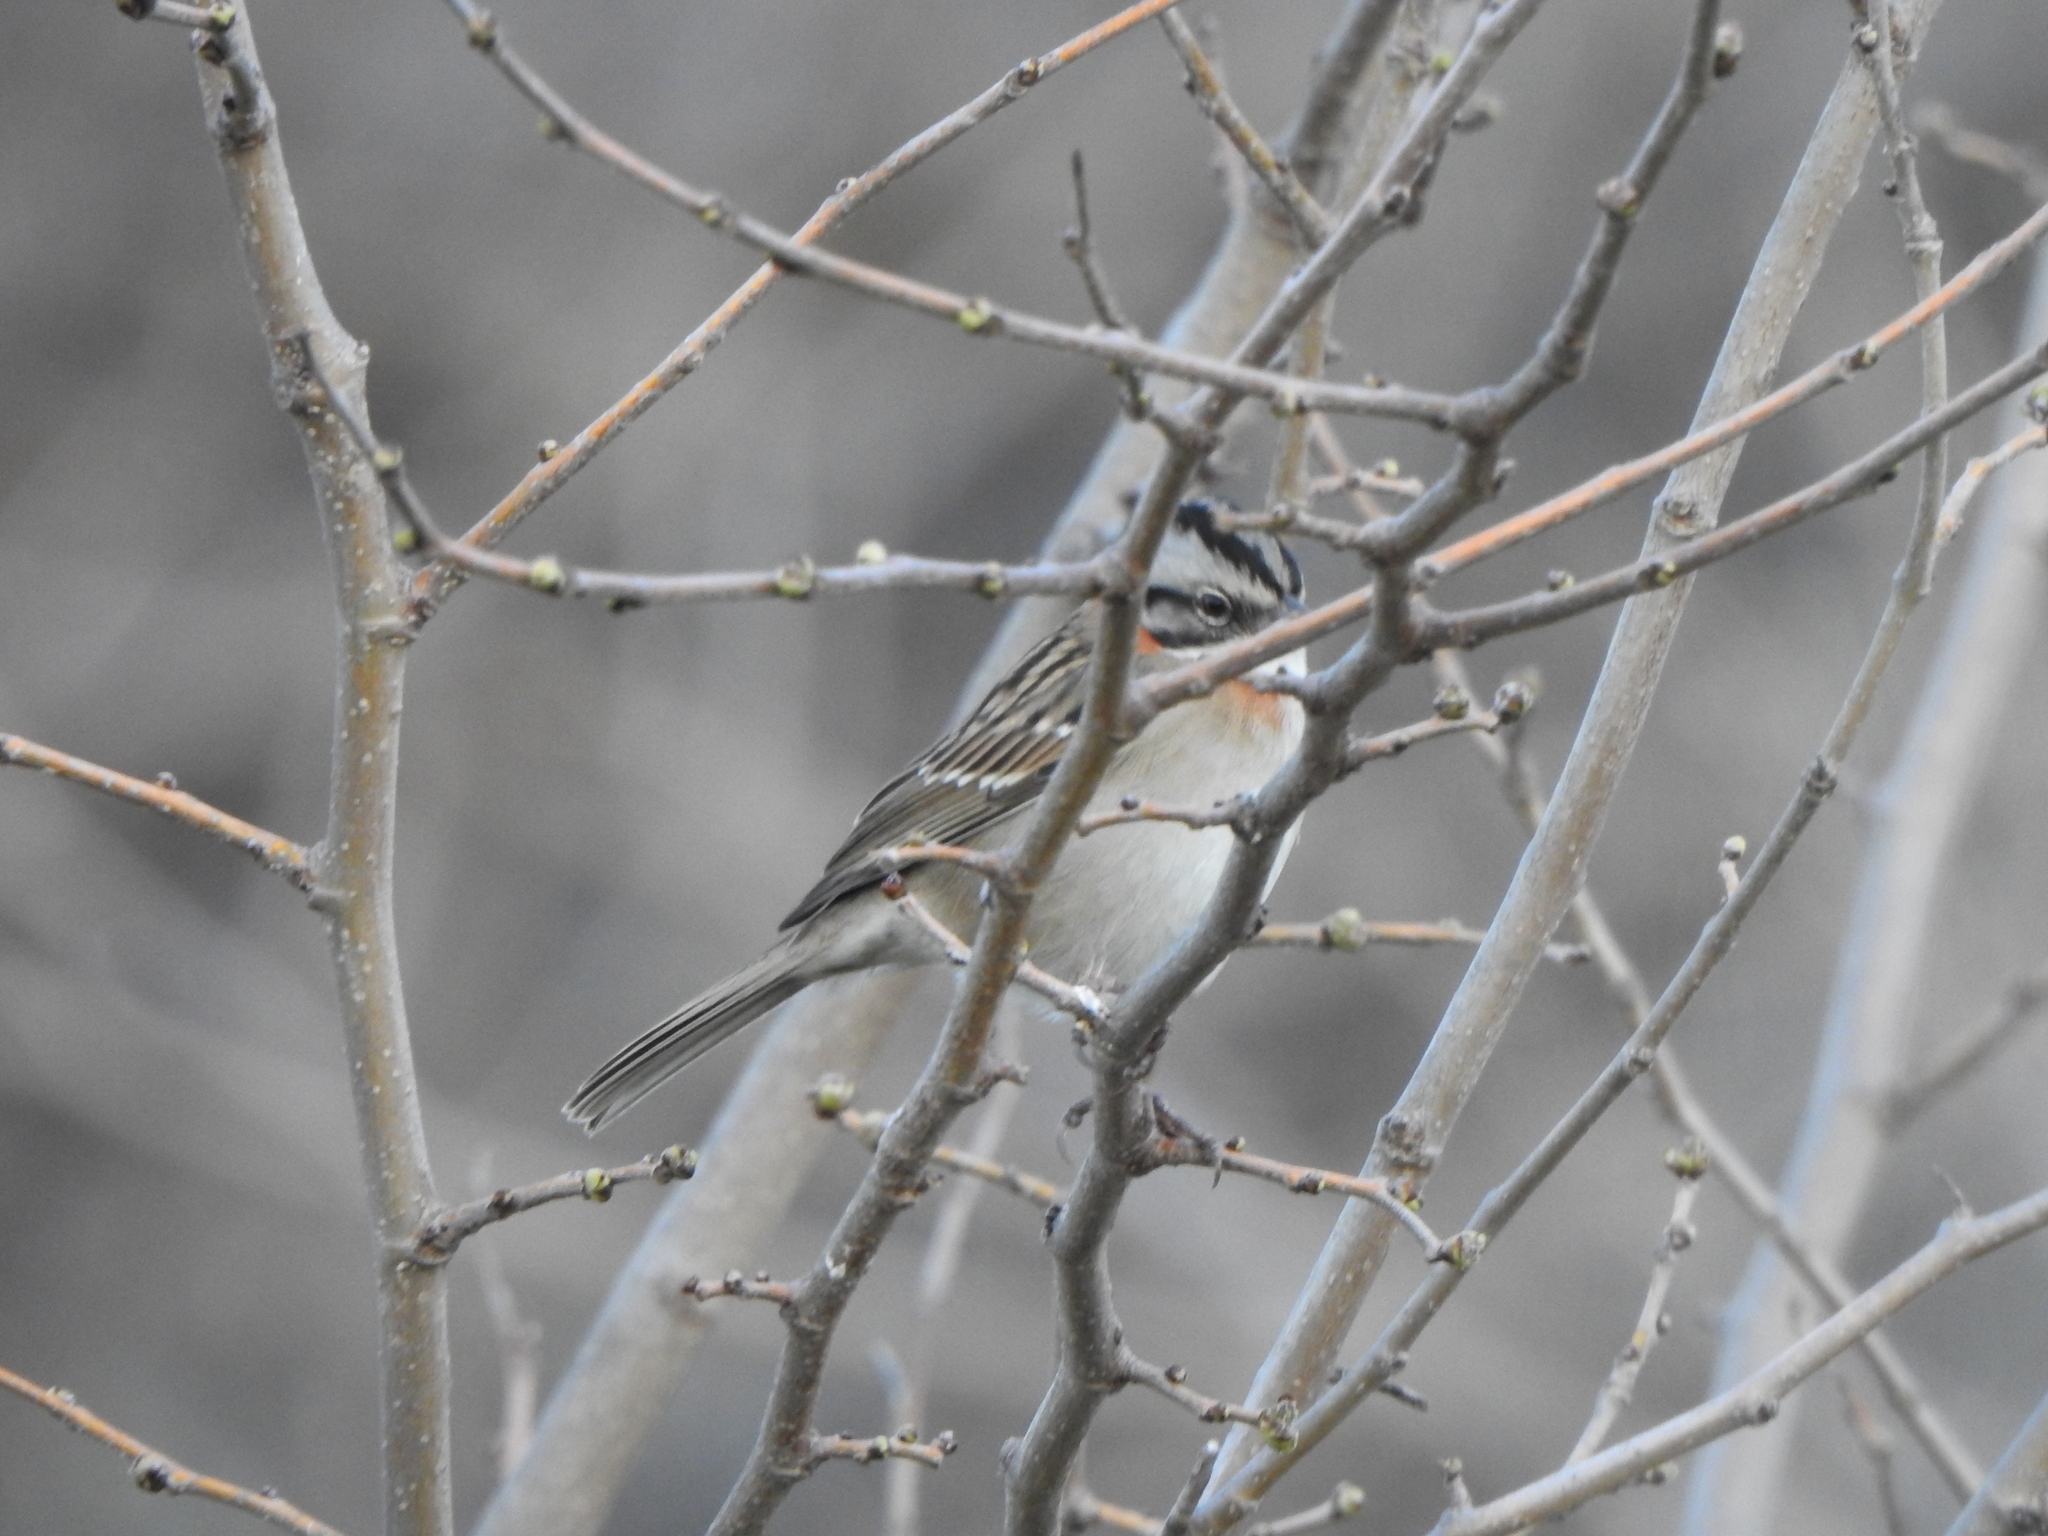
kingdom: Animalia
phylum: Chordata
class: Aves
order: Passeriformes
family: Passerellidae
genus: Zonotrichia
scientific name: Zonotrichia capensis
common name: Rufous-collared sparrow
